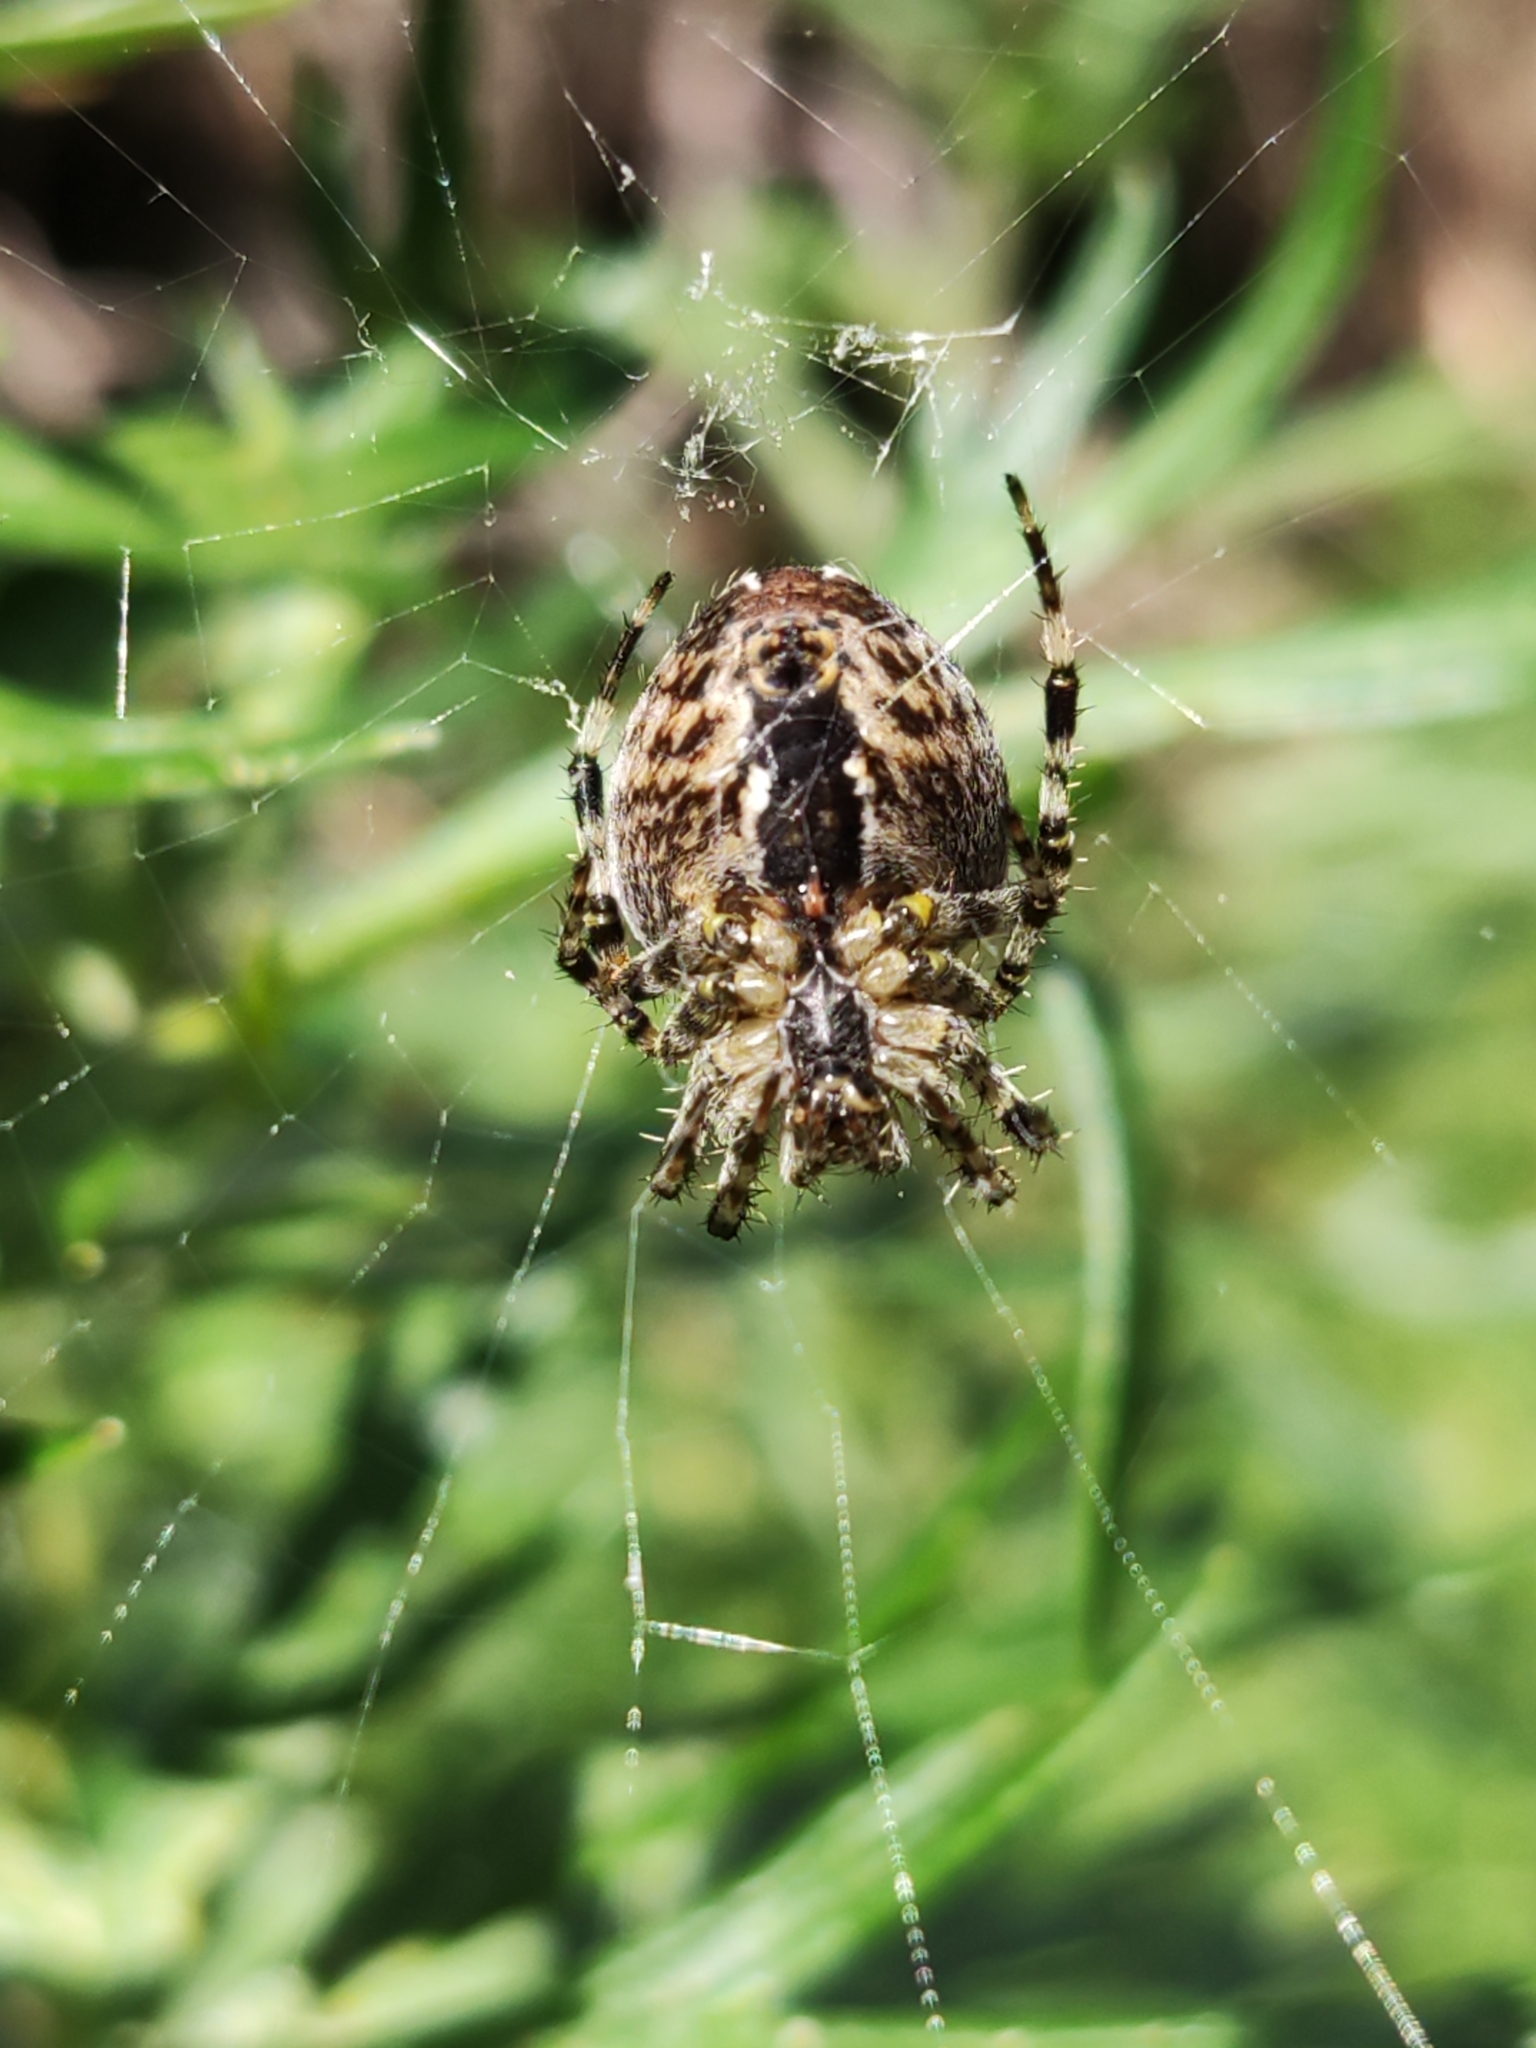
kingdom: Animalia
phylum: Arthropoda
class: Arachnida
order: Araneae
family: Araneidae
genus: Araneus
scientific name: Araneus diadematus
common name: Cross orbweaver
